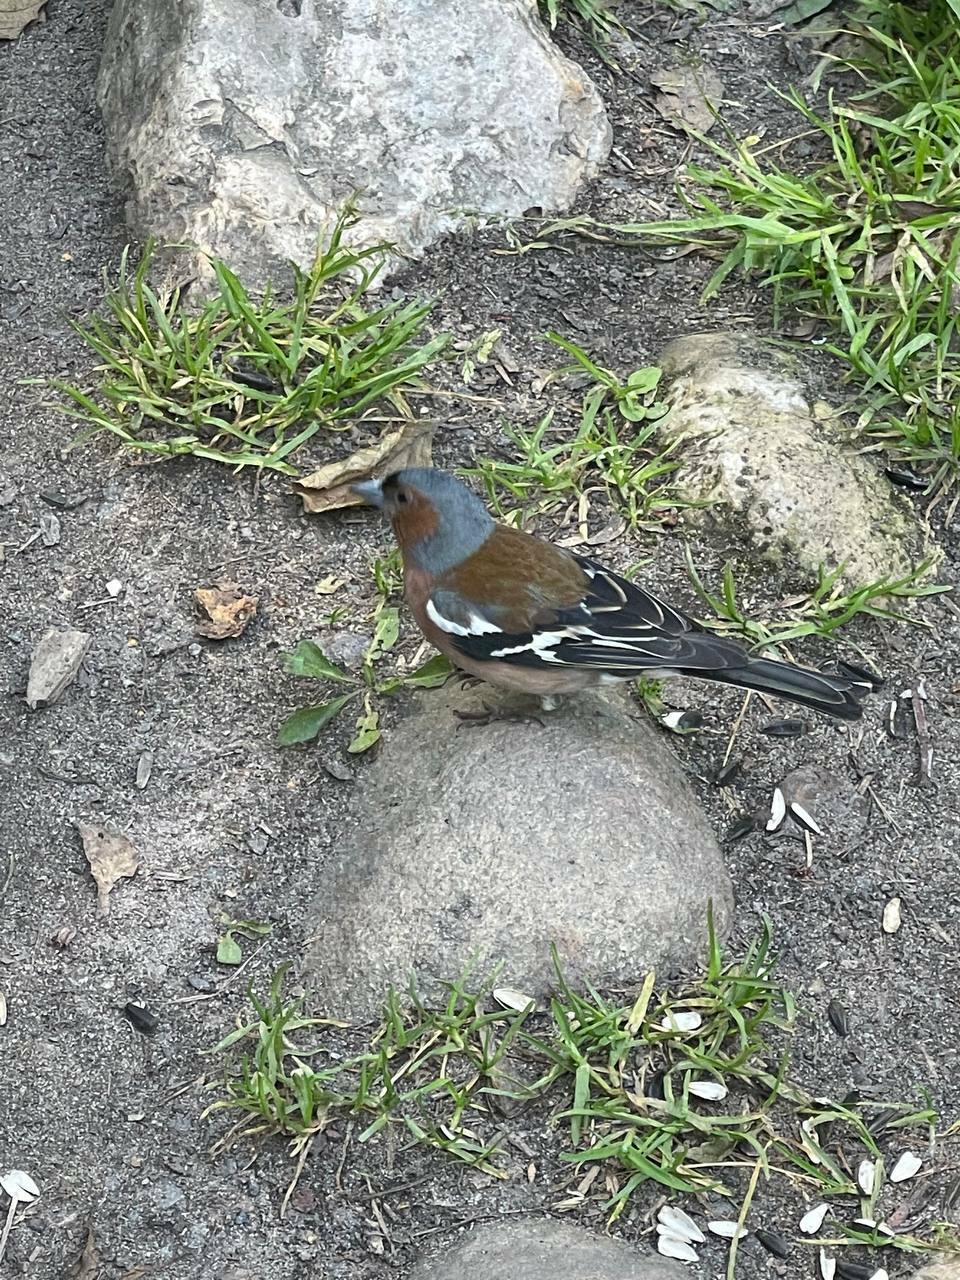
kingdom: Animalia
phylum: Chordata
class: Aves
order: Passeriformes
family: Fringillidae
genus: Fringilla
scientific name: Fringilla coelebs
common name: Common chaffinch
